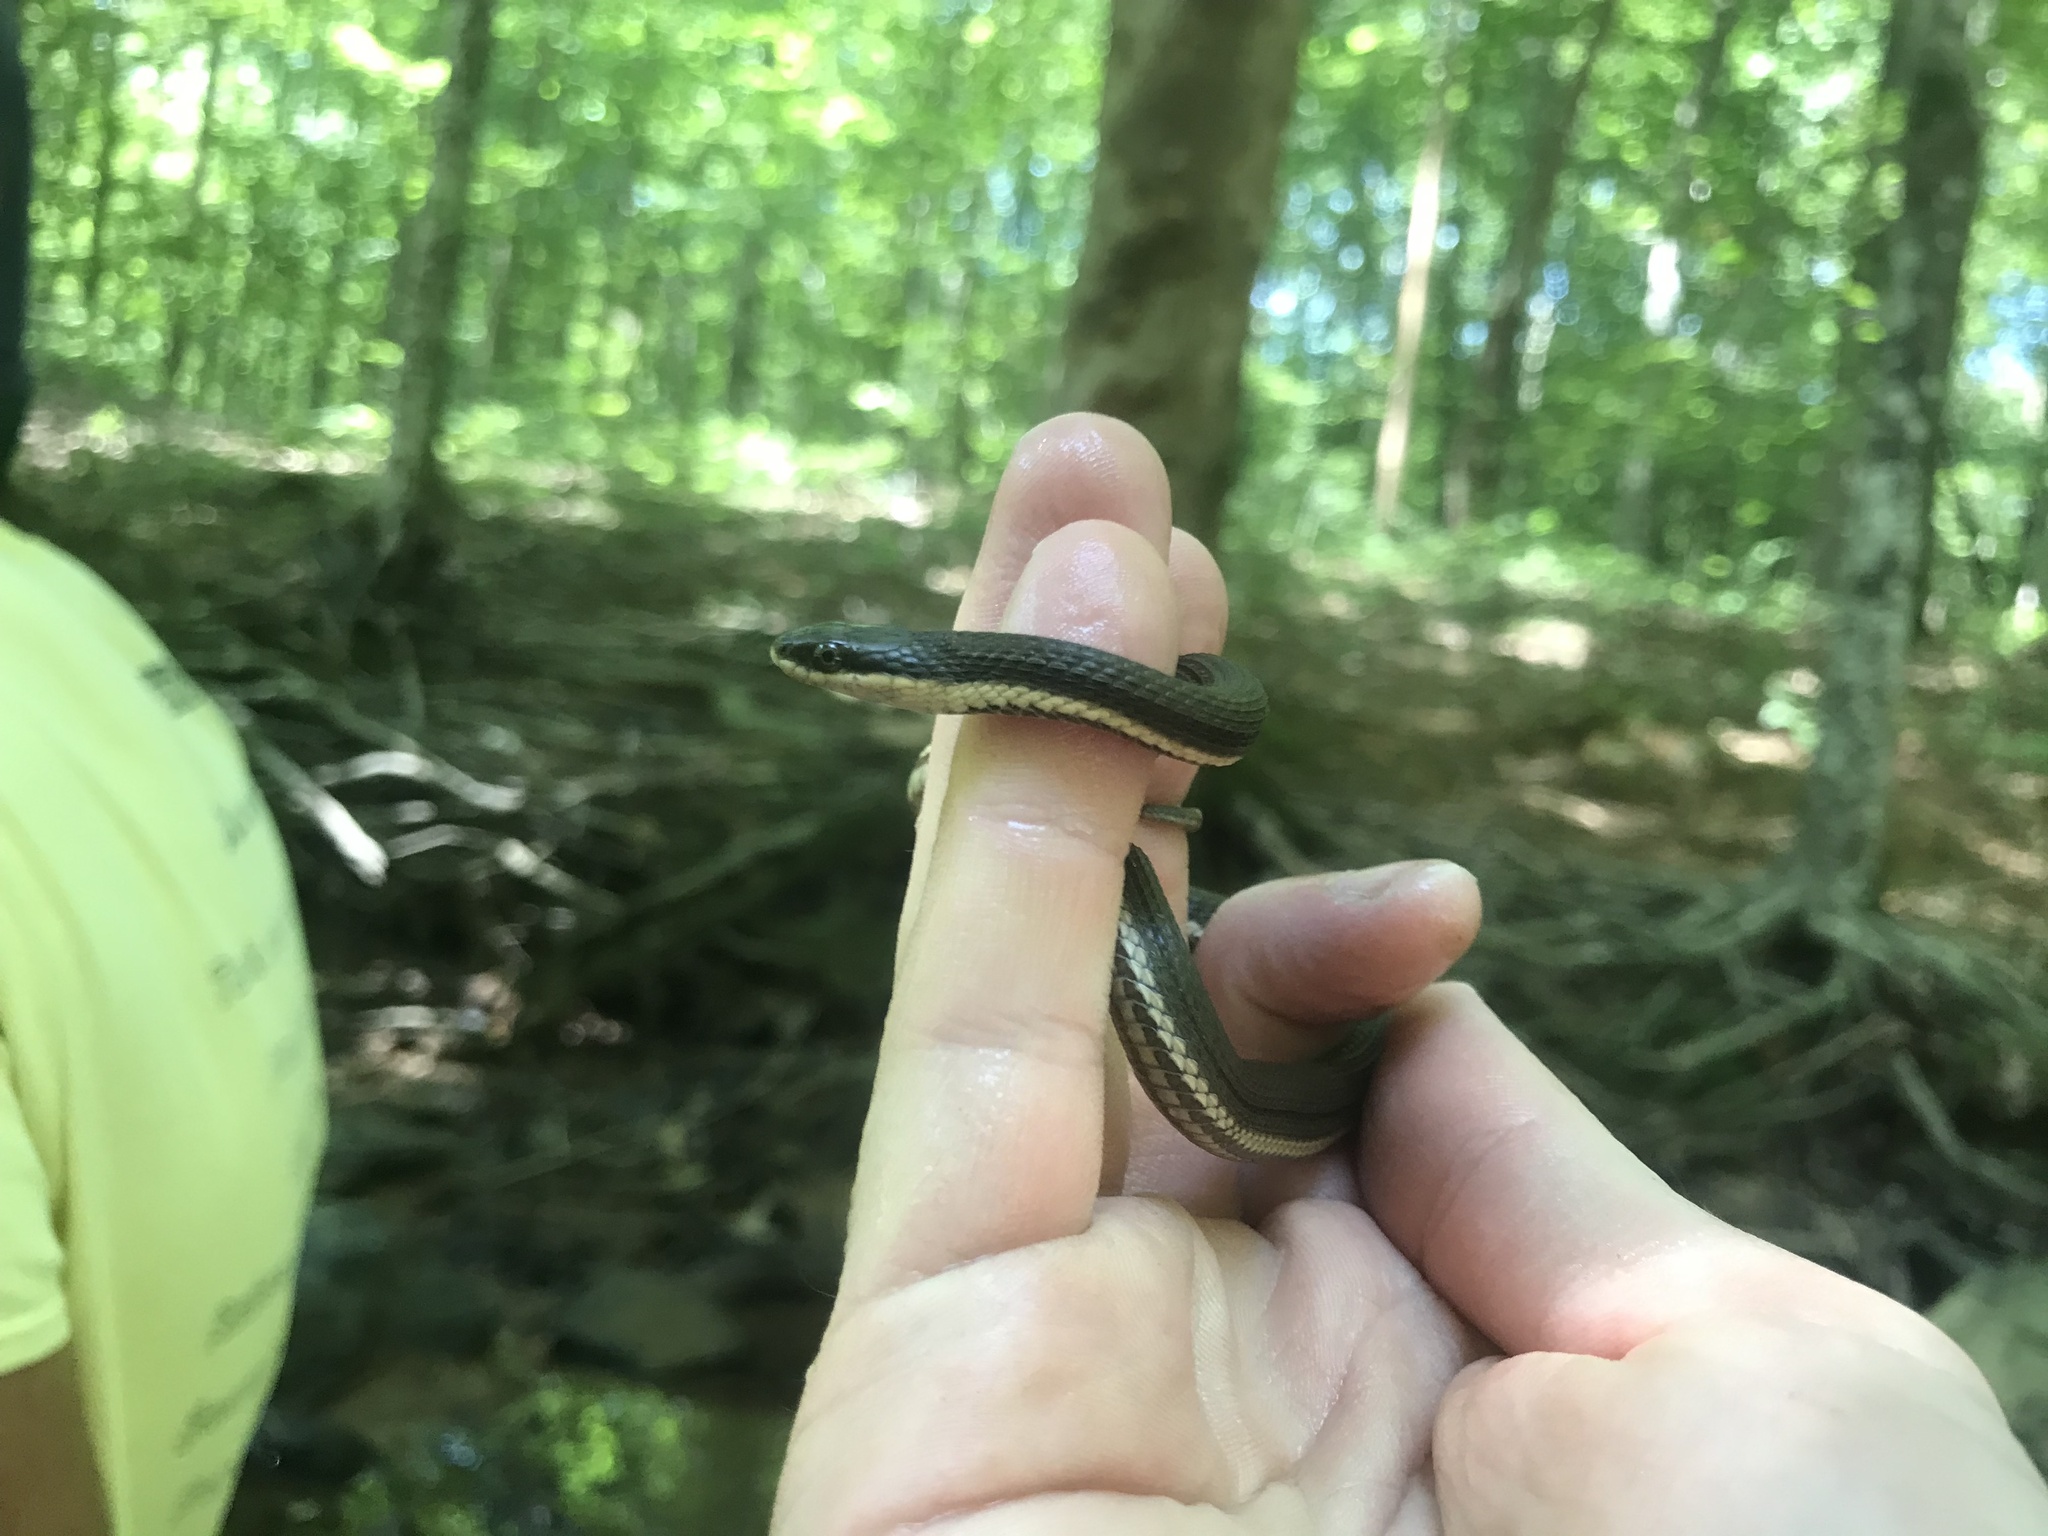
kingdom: Animalia
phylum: Chordata
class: Squamata
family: Colubridae
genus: Regina
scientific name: Regina septemvittata
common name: Queen snake
